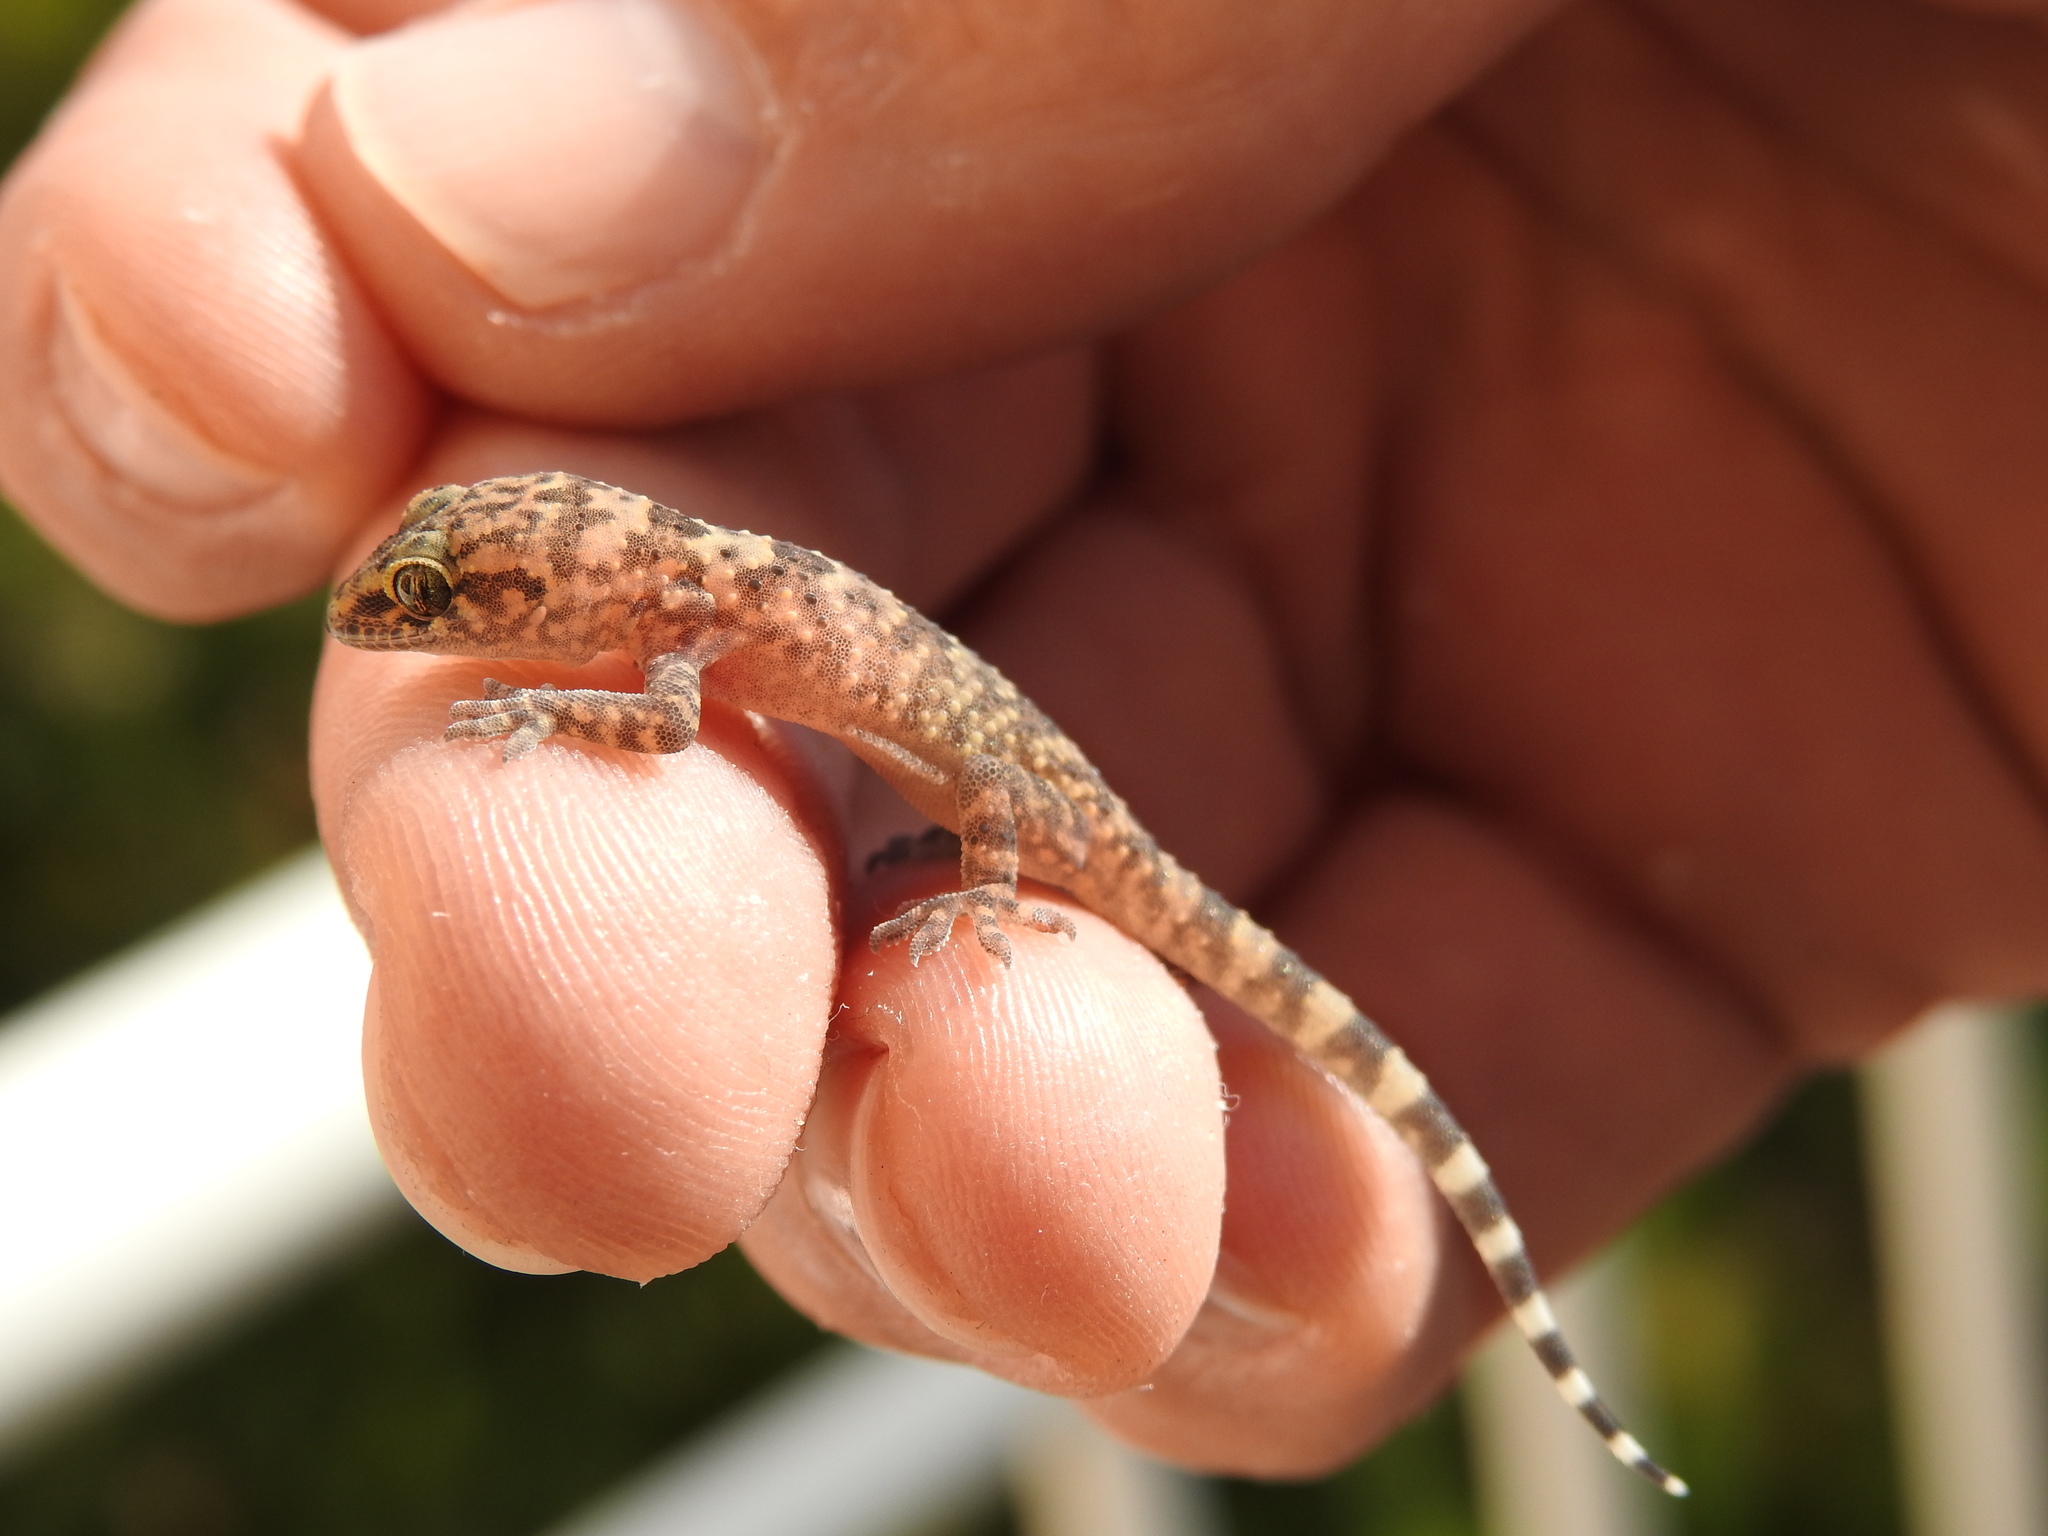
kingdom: Animalia
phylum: Chordata
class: Squamata
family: Gekkonidae
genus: Hemidactylus
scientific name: Hemidactylus turcicus
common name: Turkish gecko
